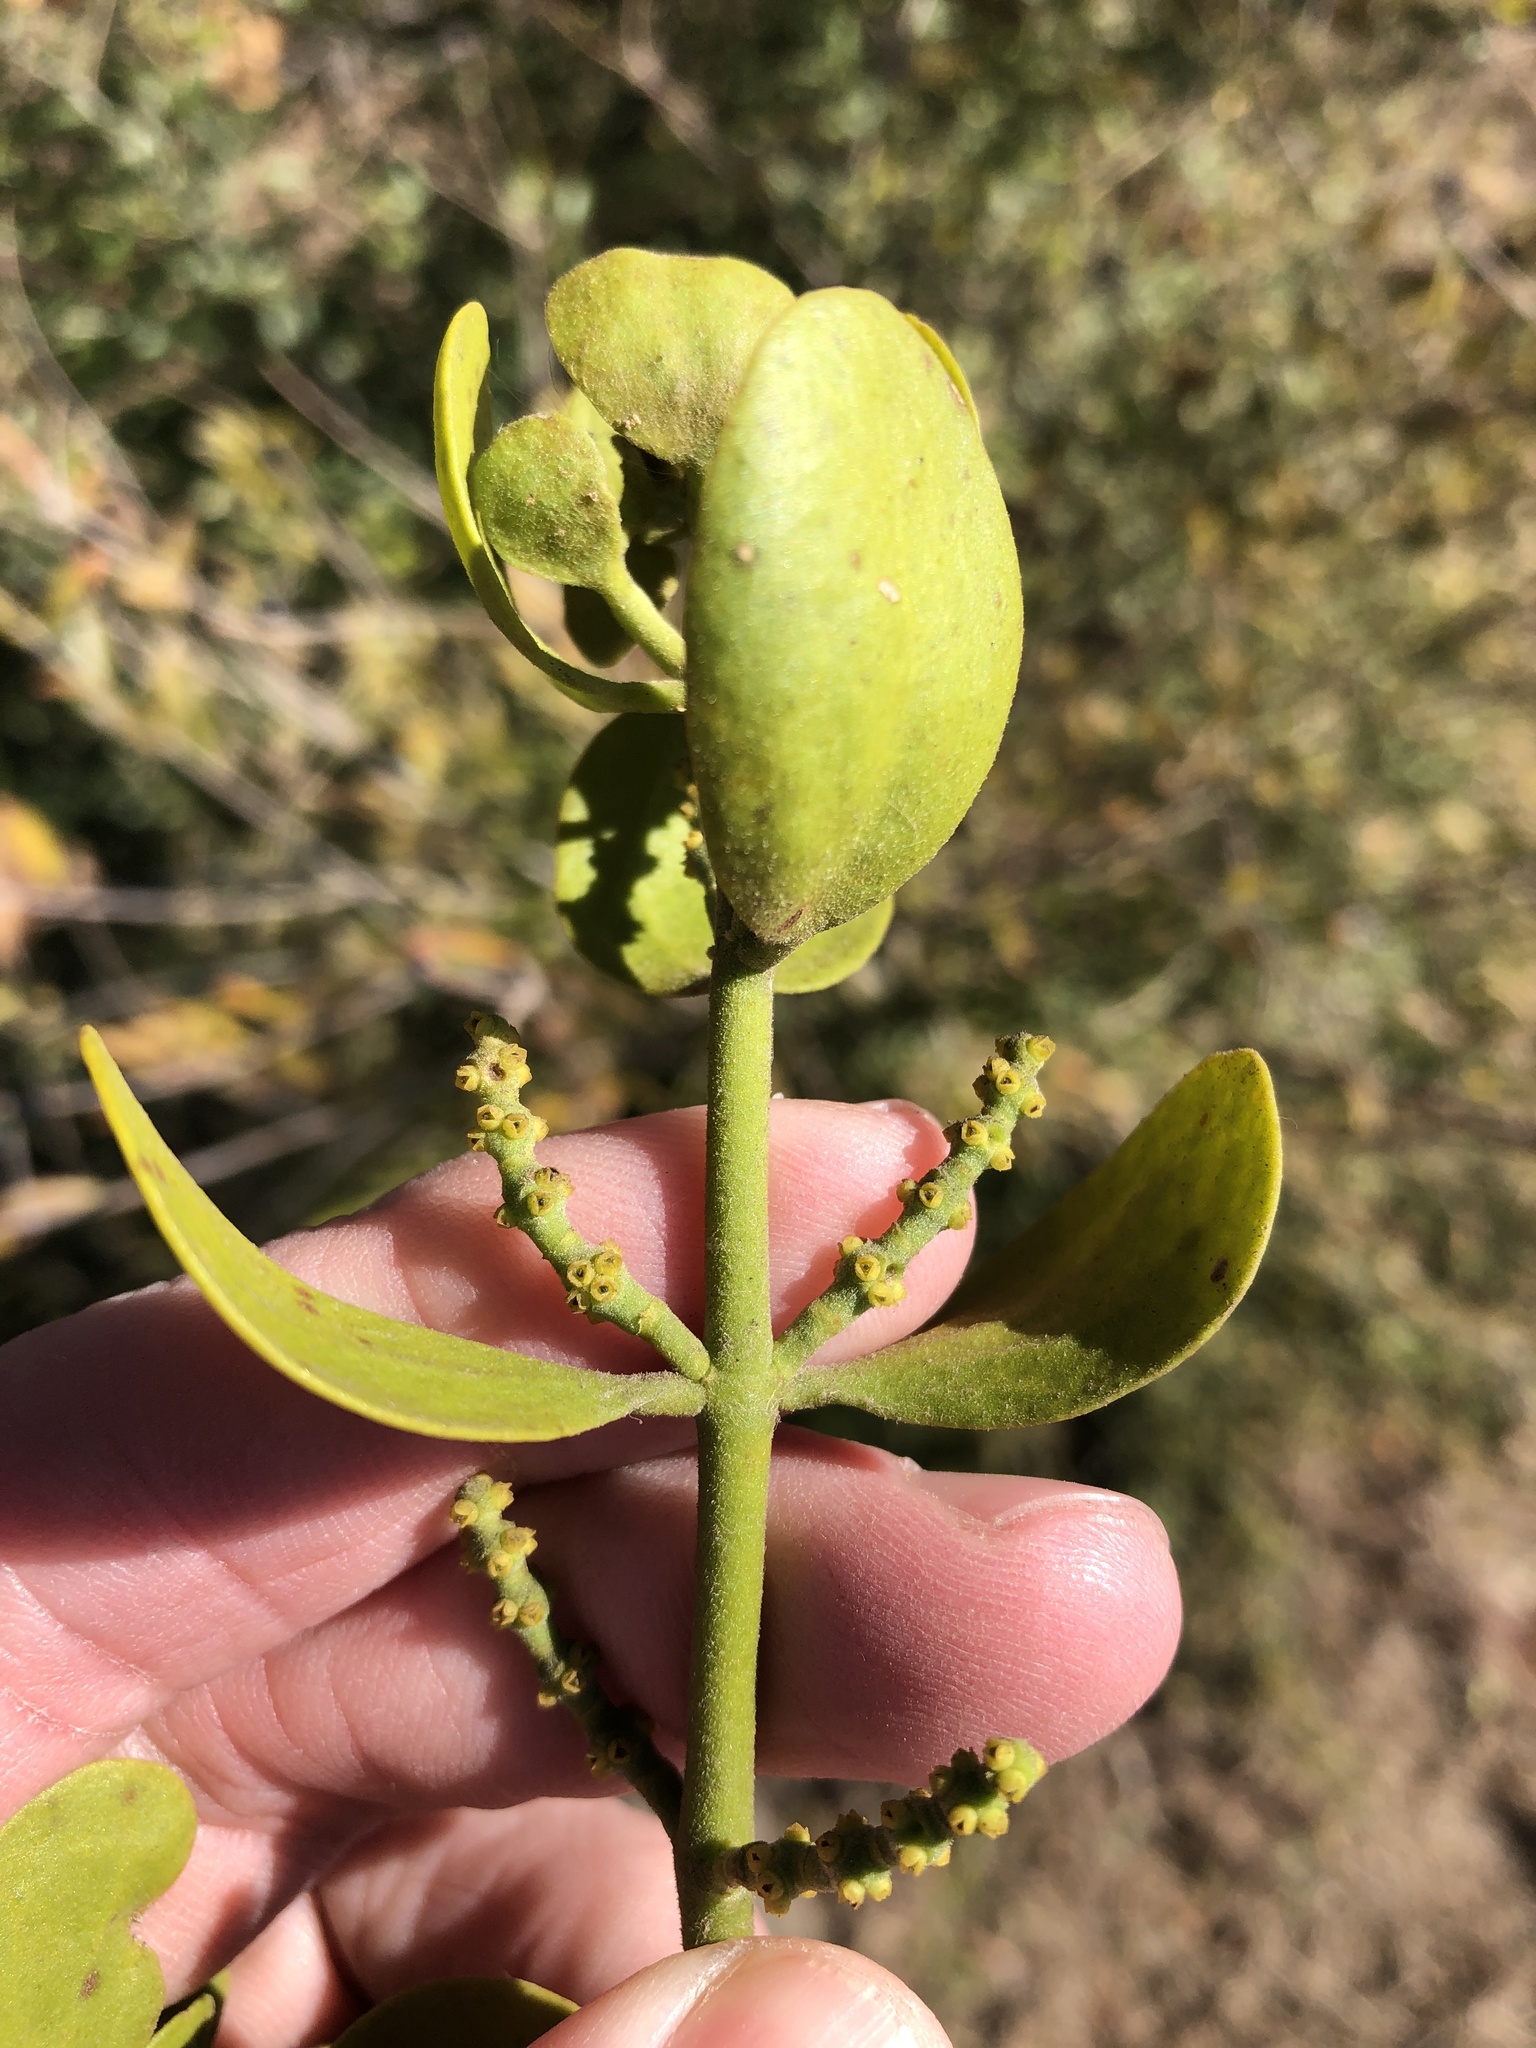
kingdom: Plantae
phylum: Tracheophyta
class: Magnoliopsida
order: Santalales
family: Viscaceae
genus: Phoradendron
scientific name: Phoradendron leucarpum
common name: Pacific mistletoe
